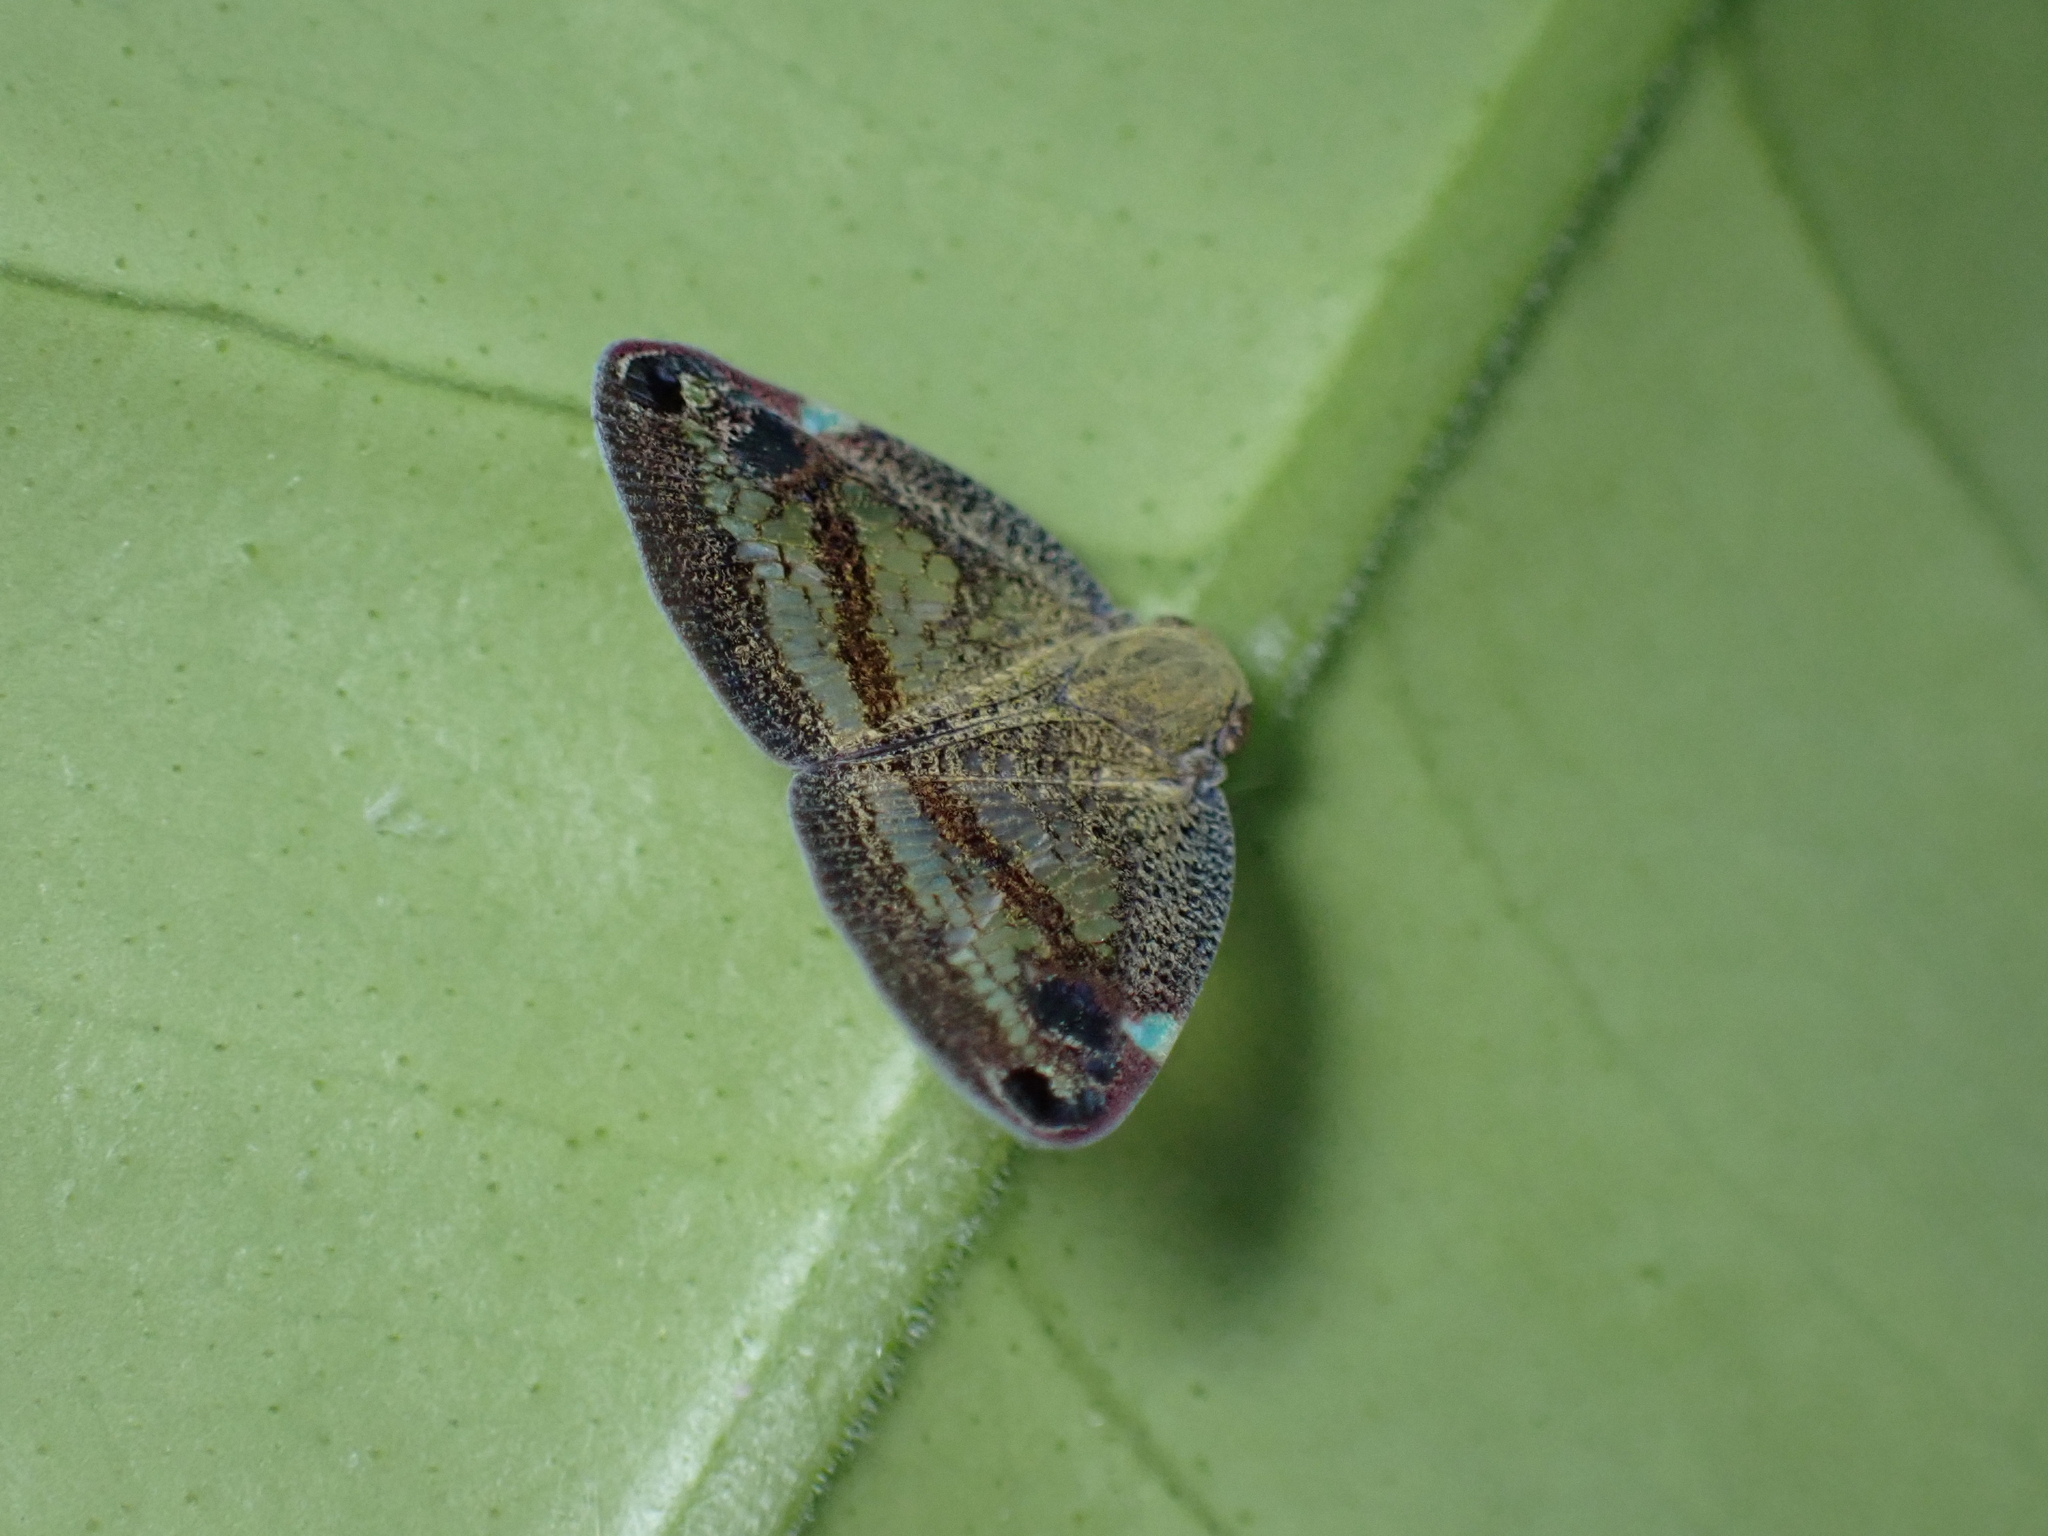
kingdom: Animalia
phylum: Arthropoda
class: Insecta
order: Hemiptera
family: Ricaniidae
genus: Parapiromis
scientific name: Parapiromis translucida
